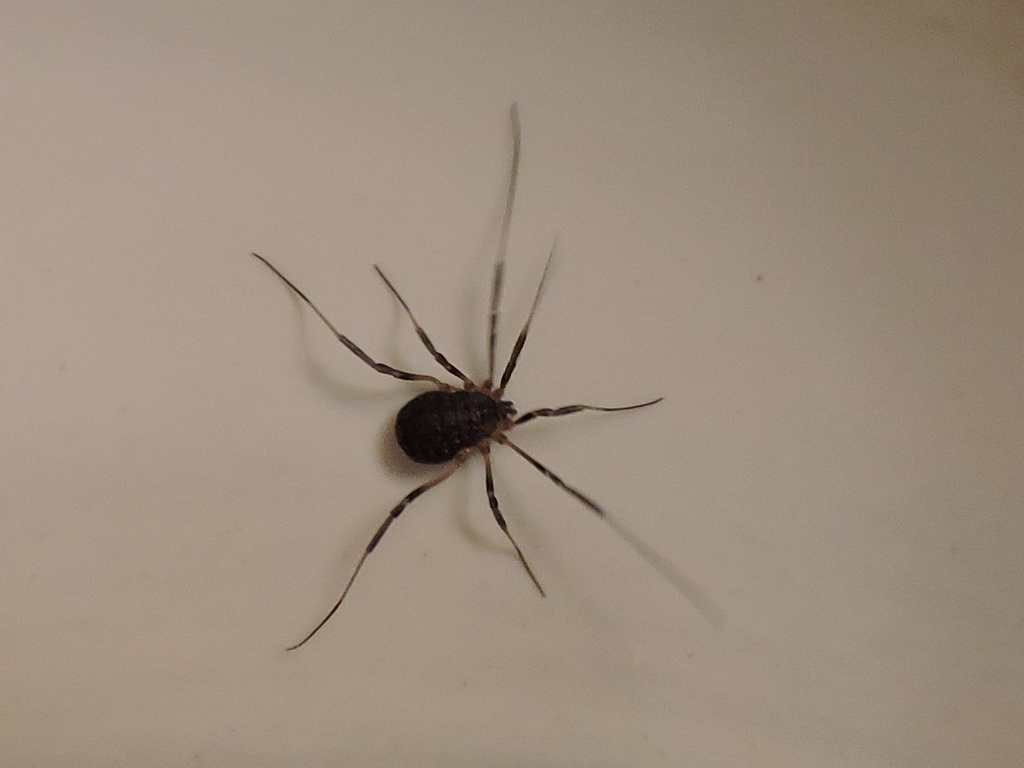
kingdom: Animalia
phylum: Arthropoda
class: Arachnida
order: Opiliones
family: Sclerosomatidae
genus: Eumesosoma
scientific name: Eumesosoma roeweri
